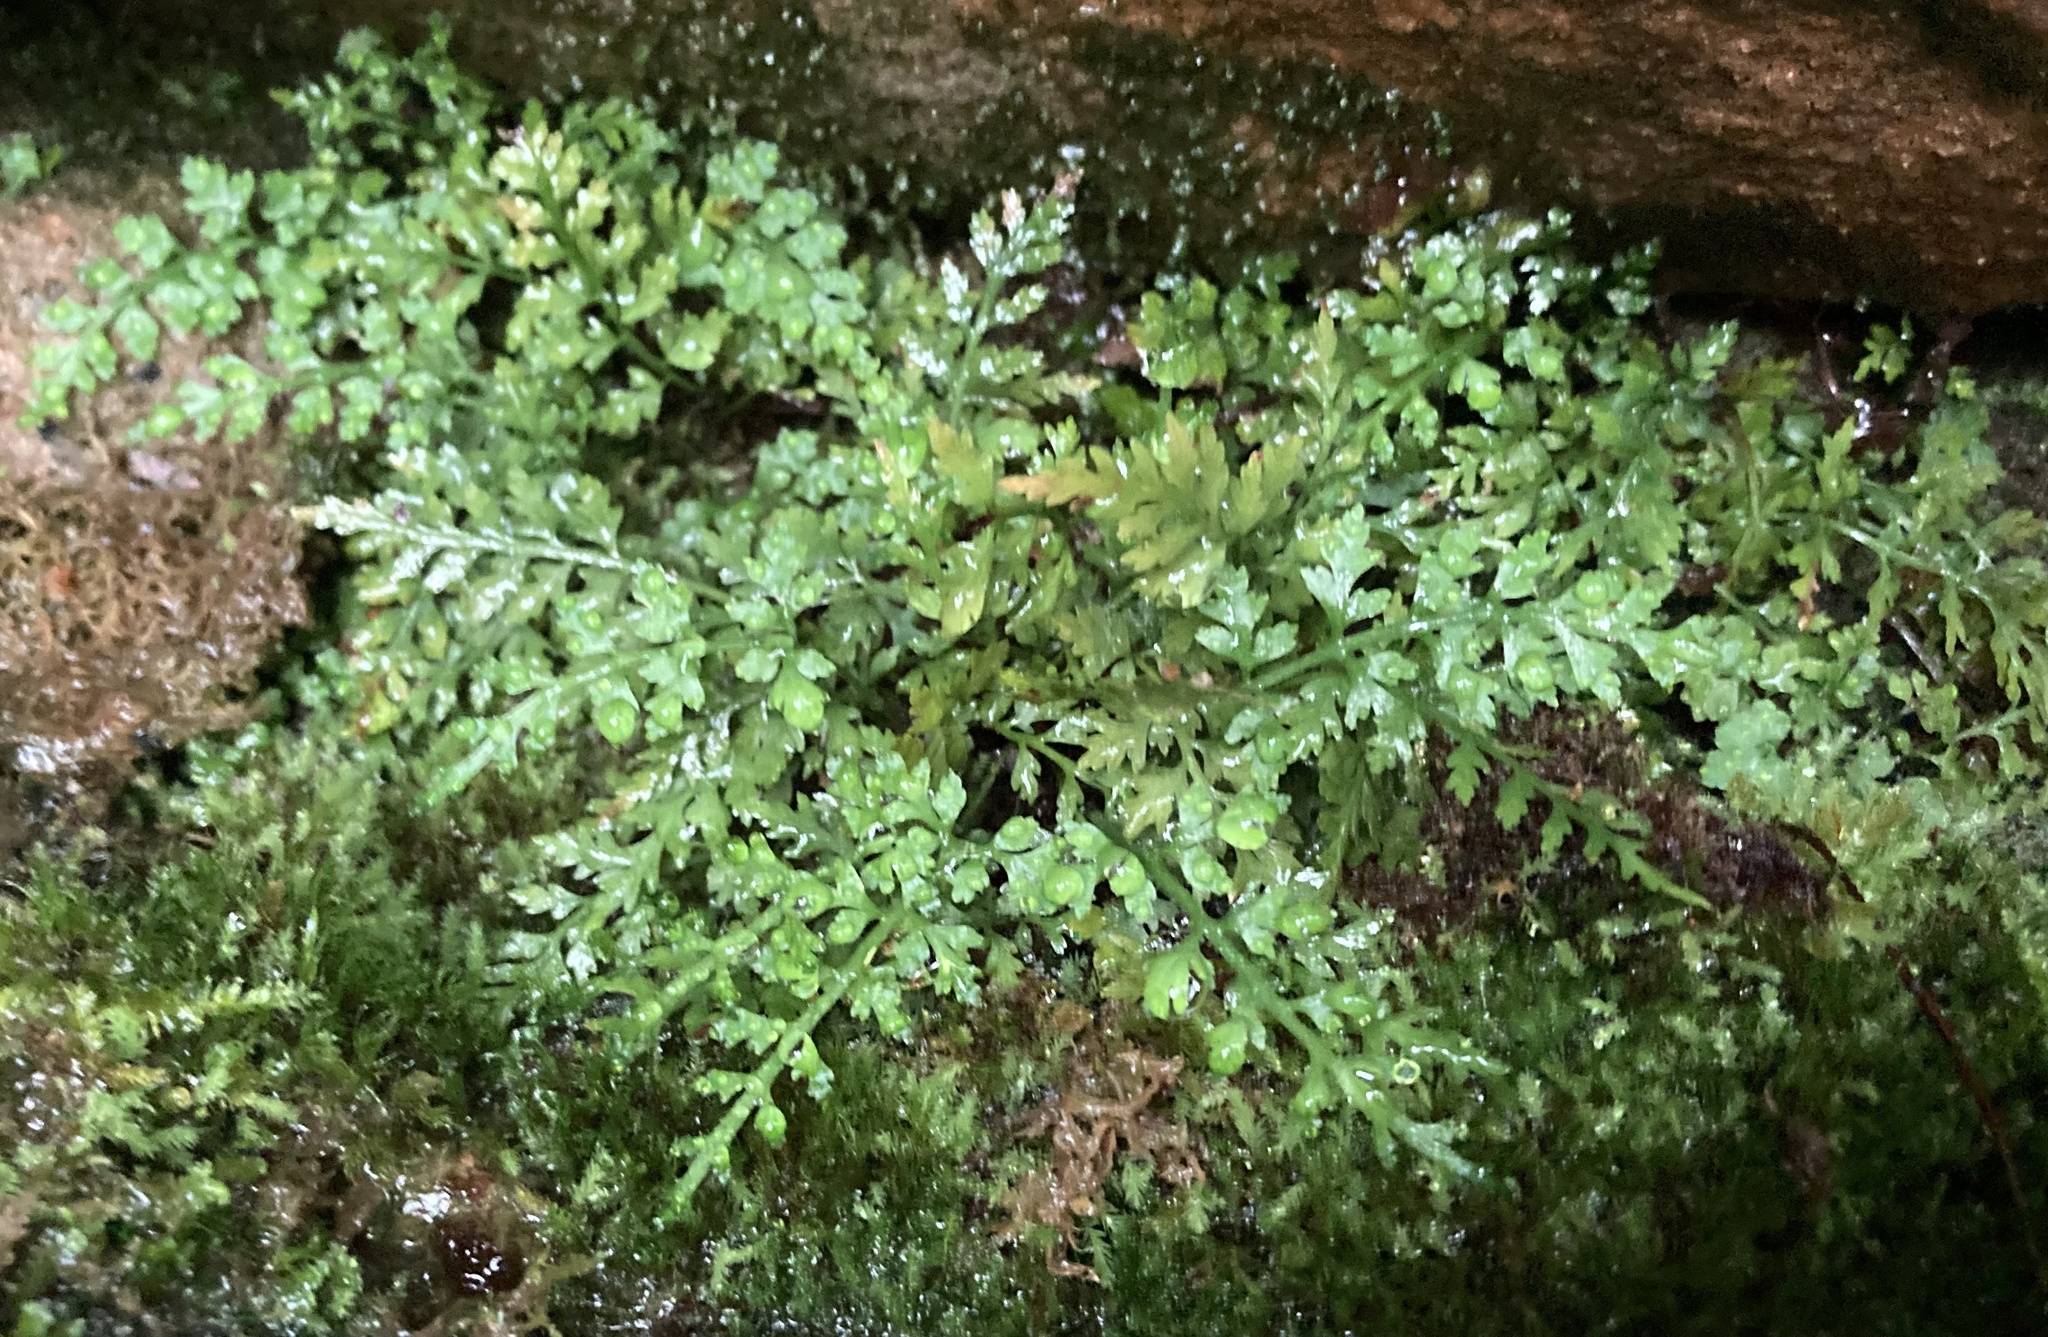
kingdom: Plantae
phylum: Tracheophyta
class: Polypodiopsida
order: Polypodiales
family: Aspleniaceae
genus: Asplenium
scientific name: Asplenium montanum
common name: Mountain spleenwort
